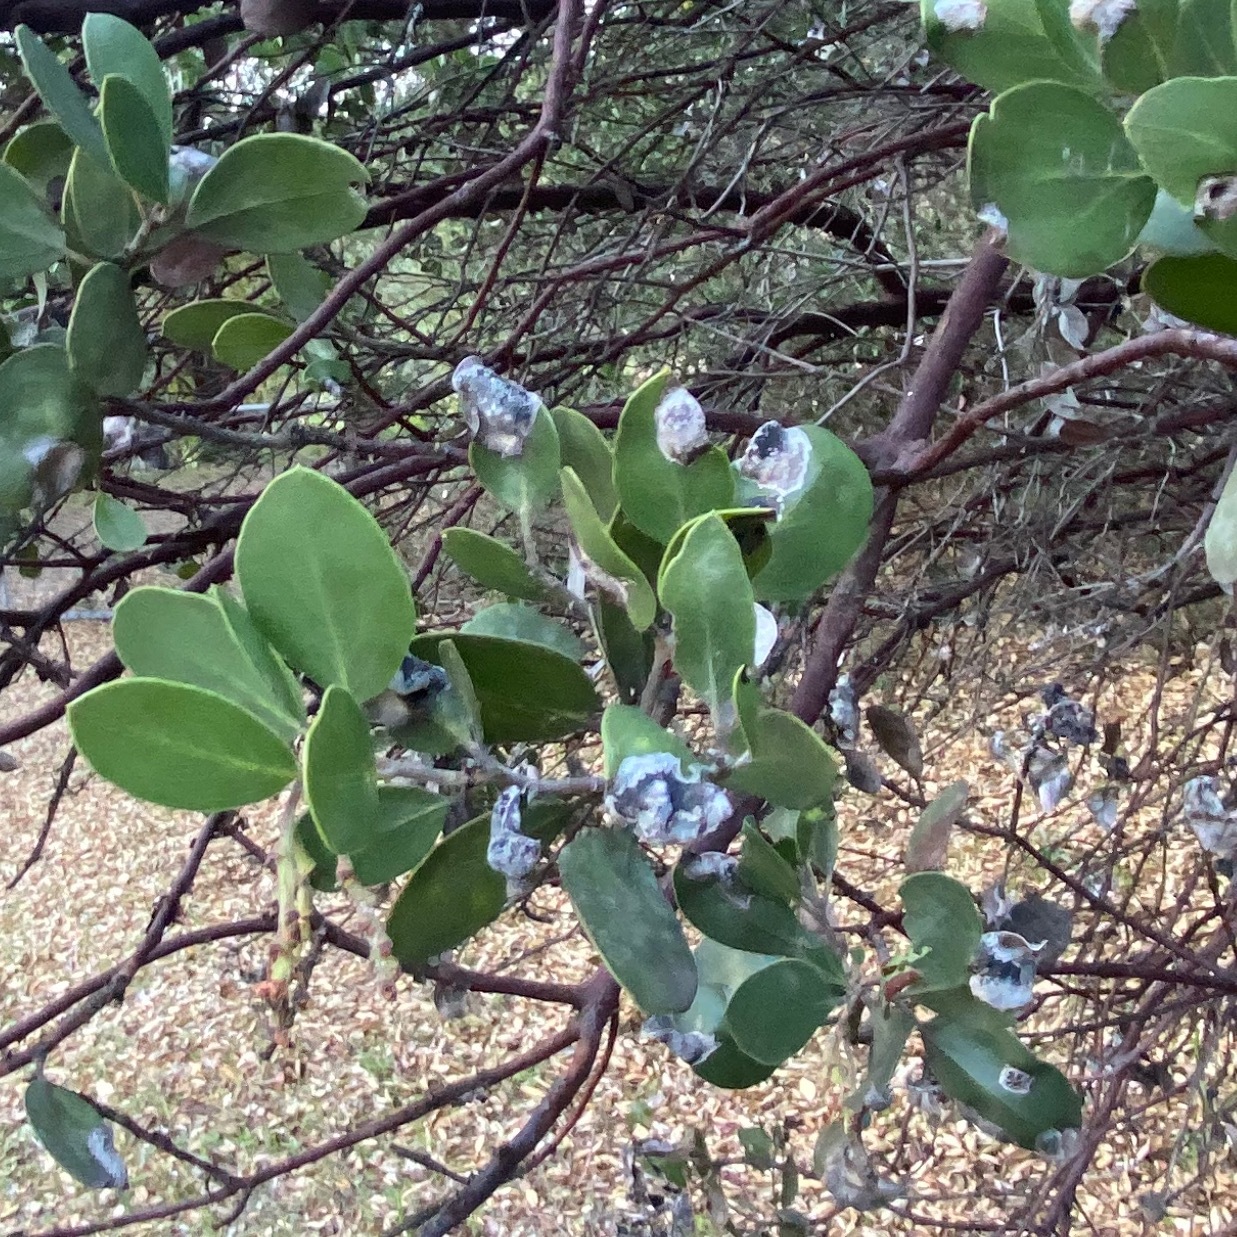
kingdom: Fungi
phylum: Basidiomycota
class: Exobasidiomycetes
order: Exobasidiales
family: Exobasidiaceae
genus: Exobasidium
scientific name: Exobasidium arctostaphyli
